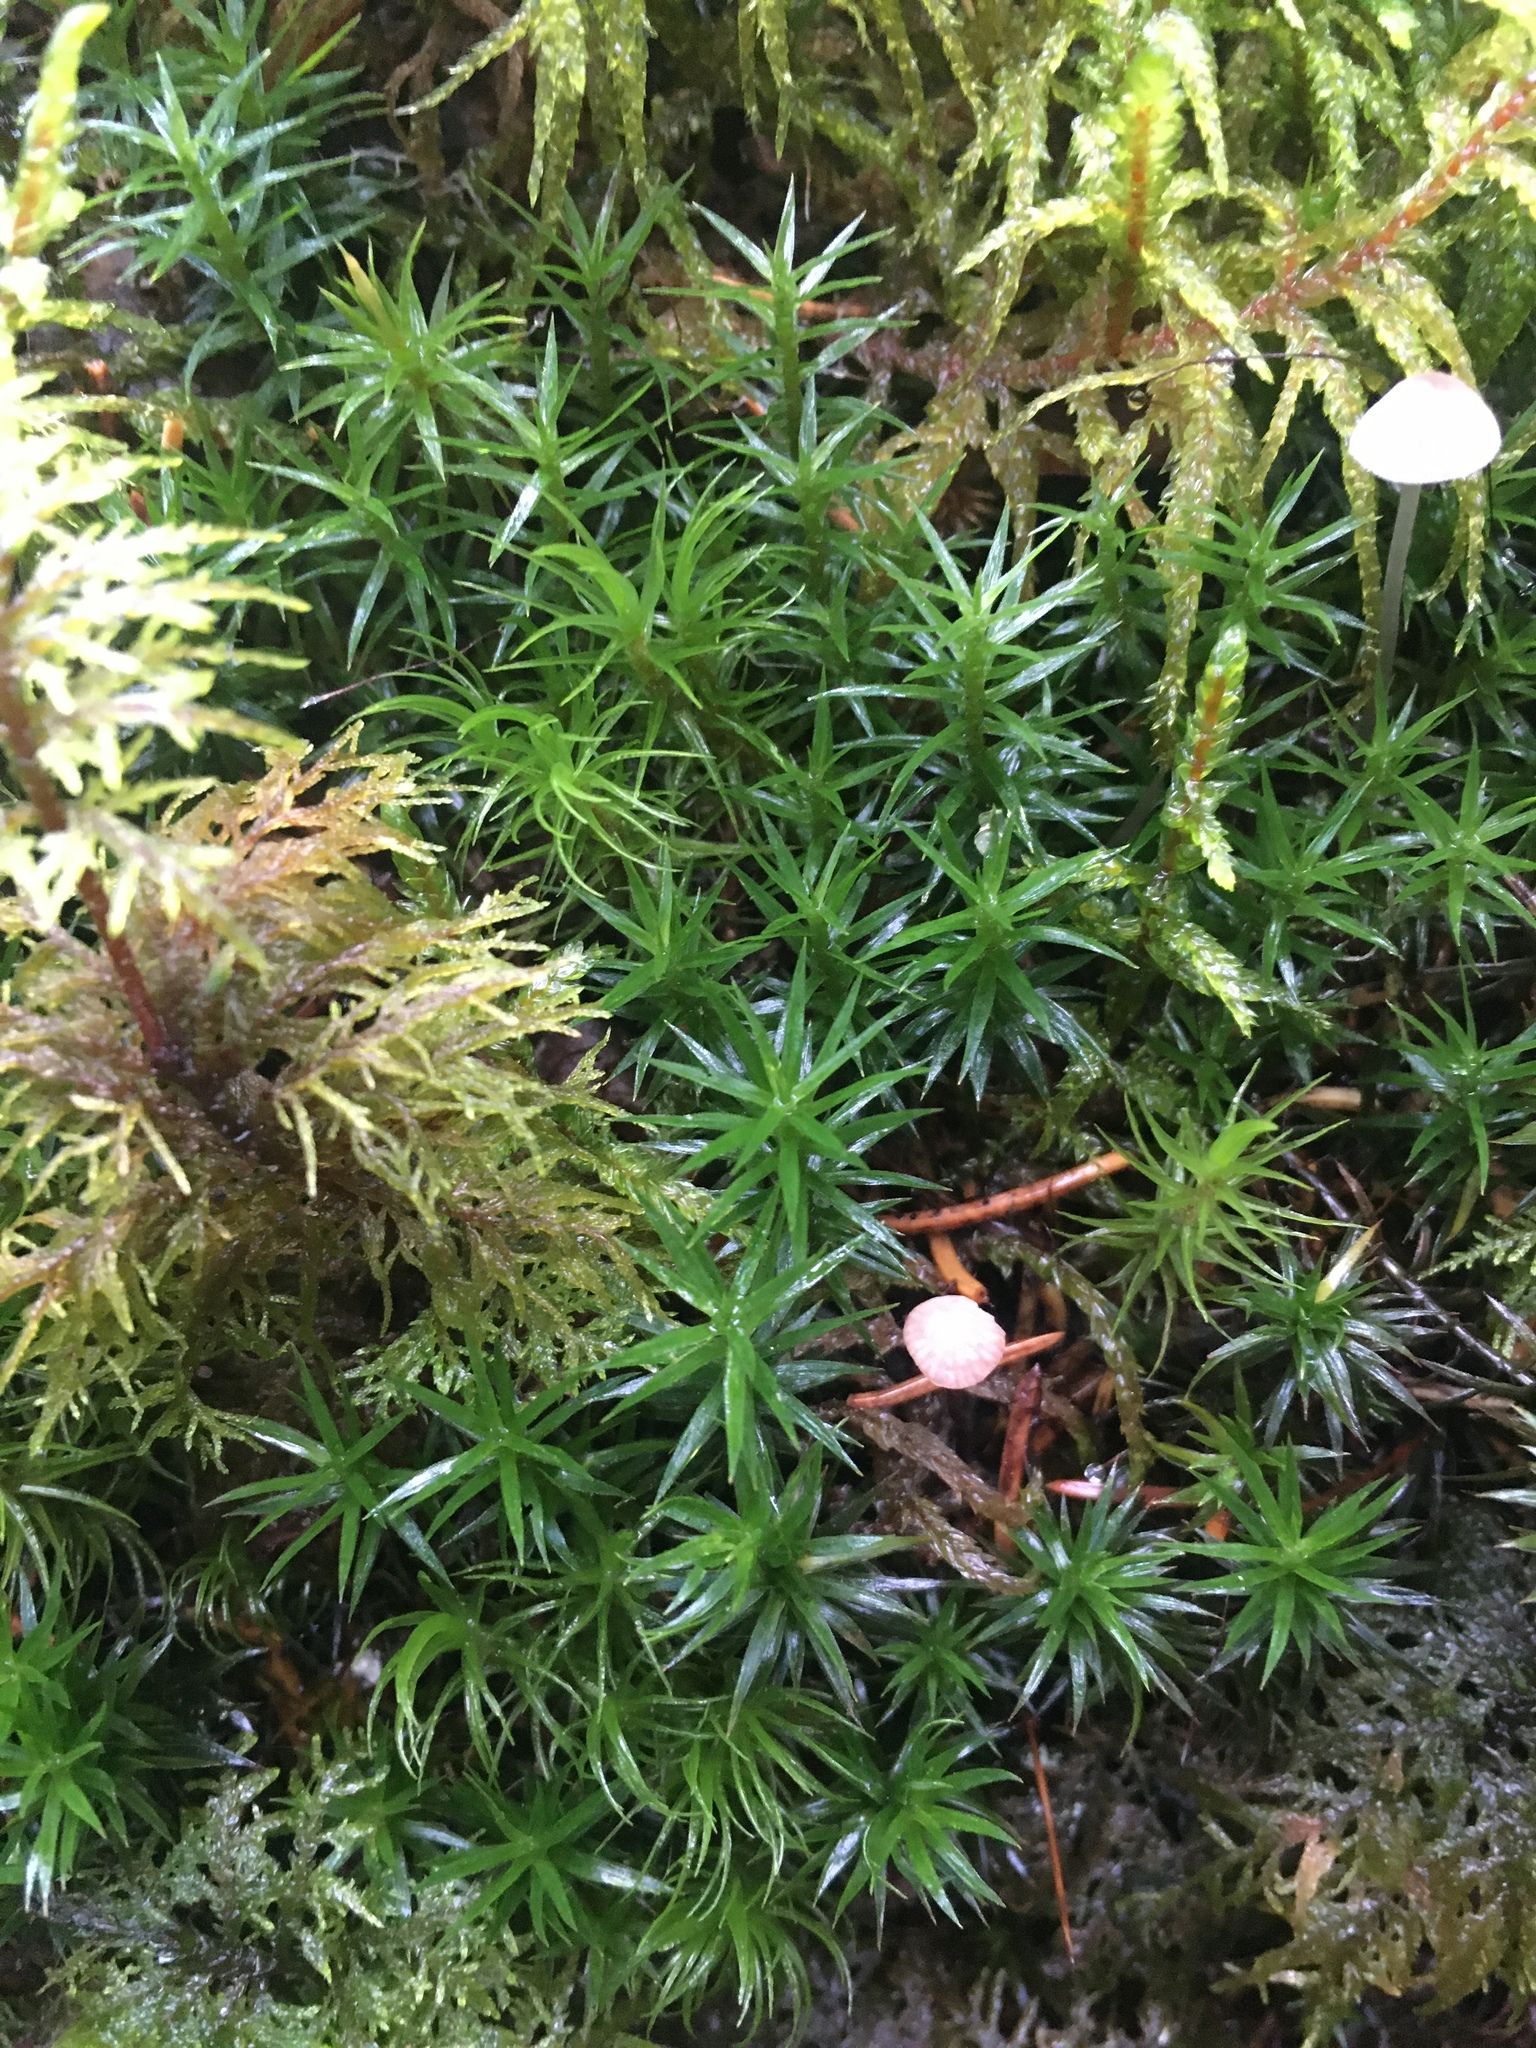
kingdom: Plantae
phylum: Bryophyta
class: Polytrichopsida
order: Polytrichales
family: Polytrichaceae
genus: Polytrichum
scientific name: Polytrichum formosum
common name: Bank haircap moss
